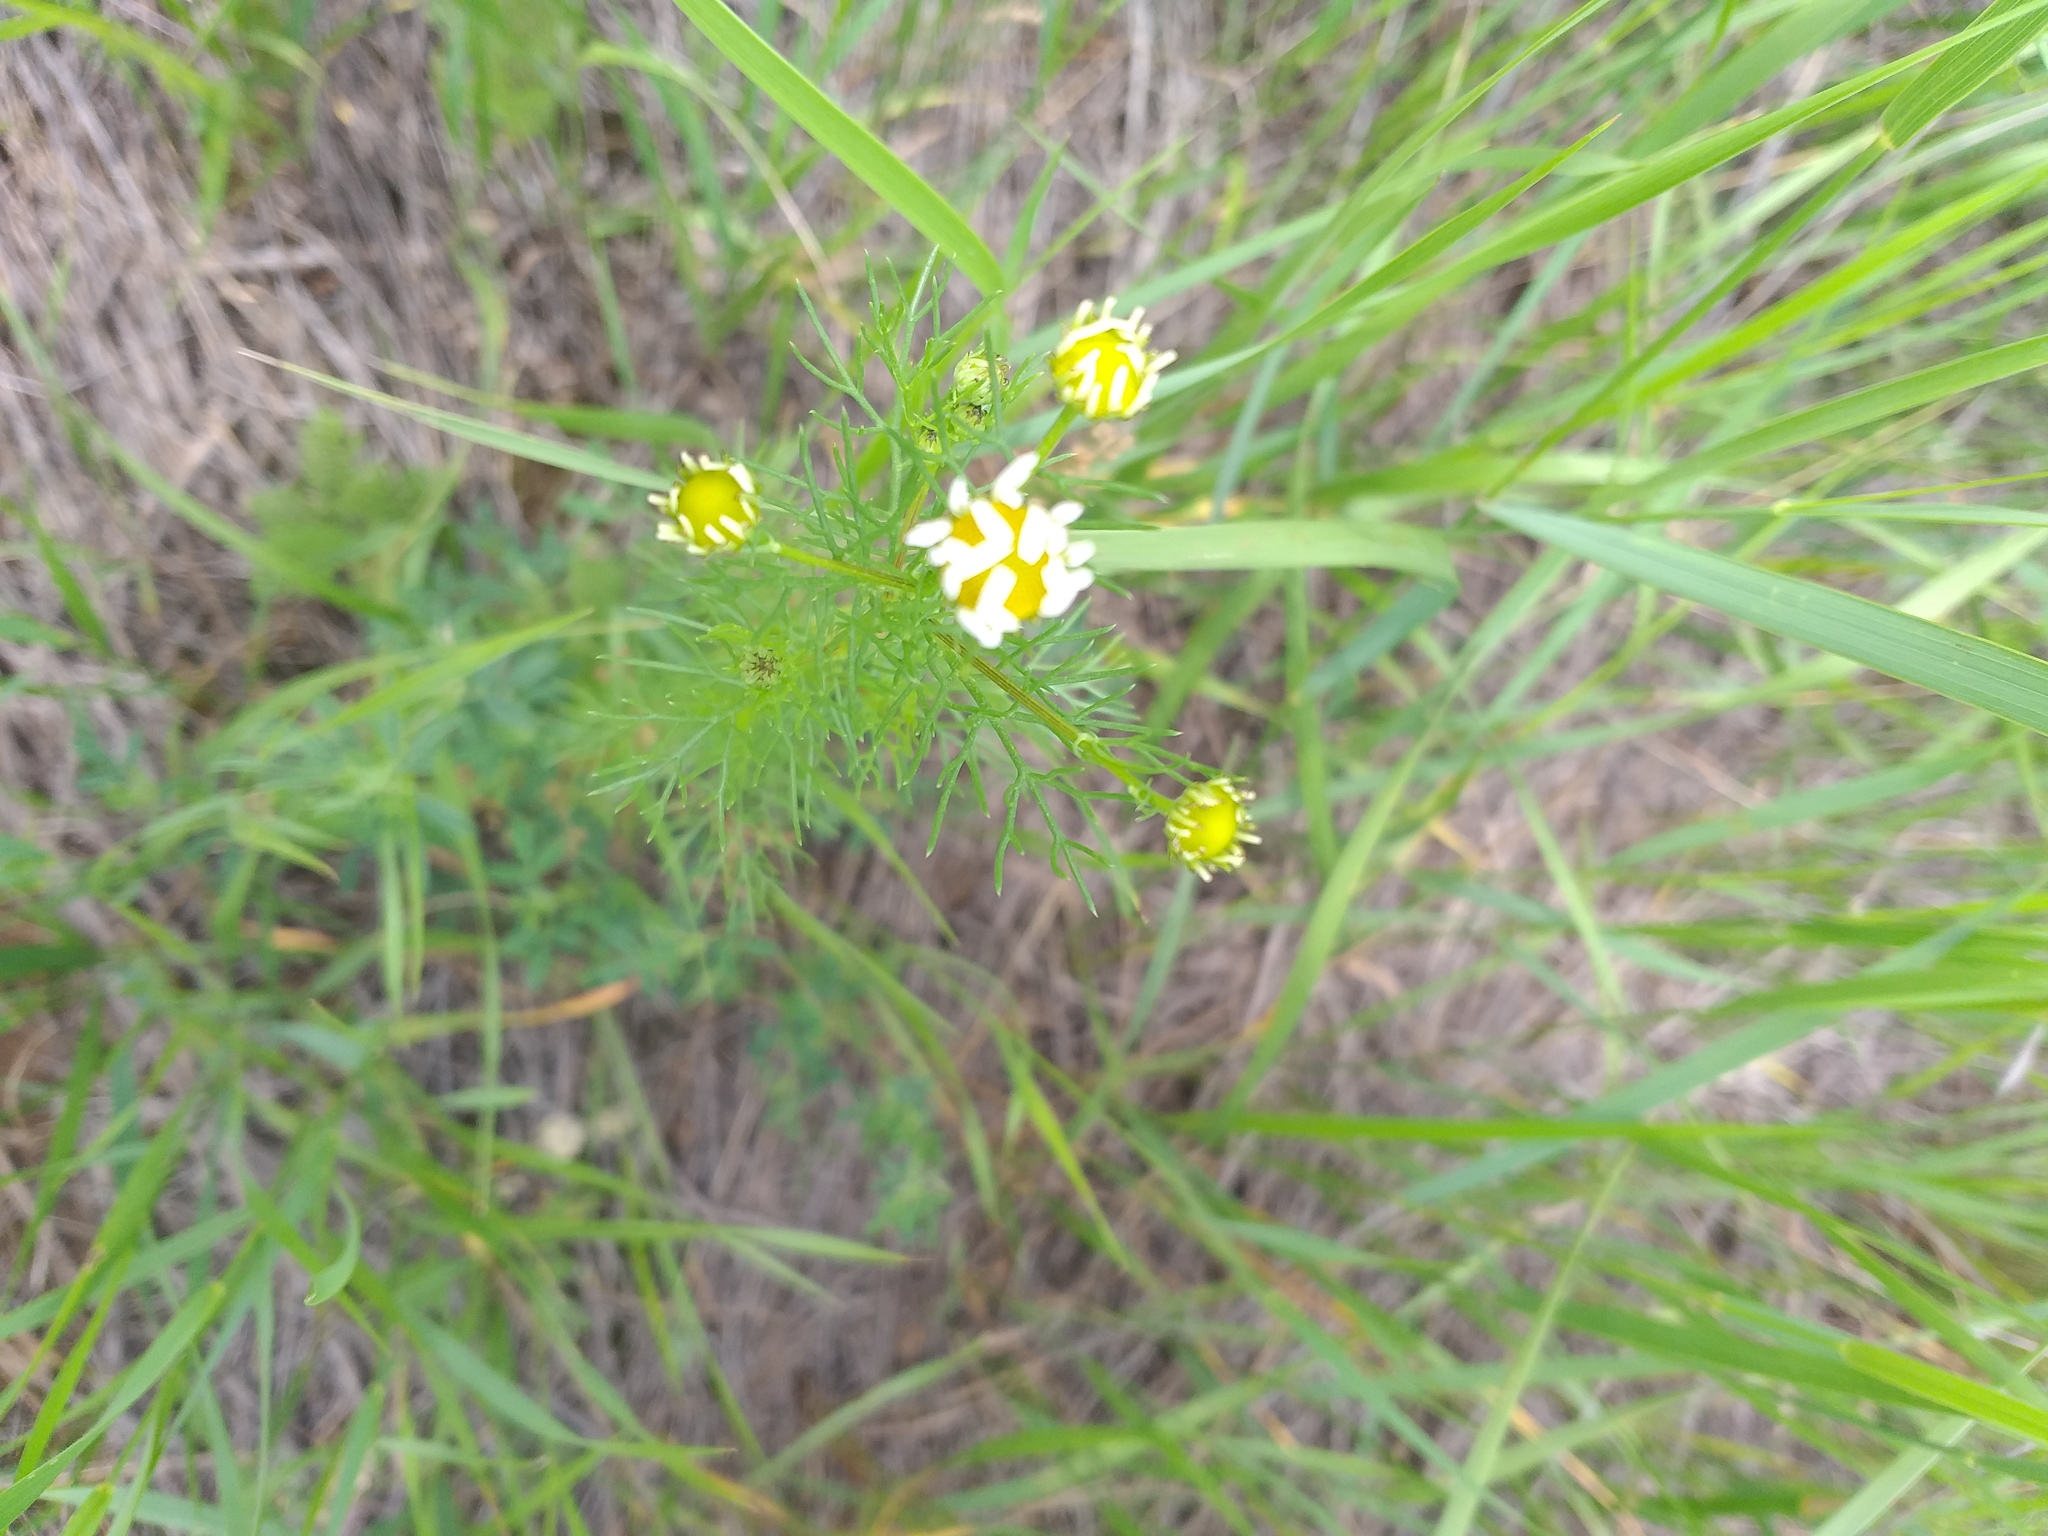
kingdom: Plantae
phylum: Tracheophyta
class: Magnoliopsida
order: Asterales
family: Asteraceae
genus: Tripleurospermum
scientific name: Tripleurospermum inodorum
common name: Scentless mayweed
